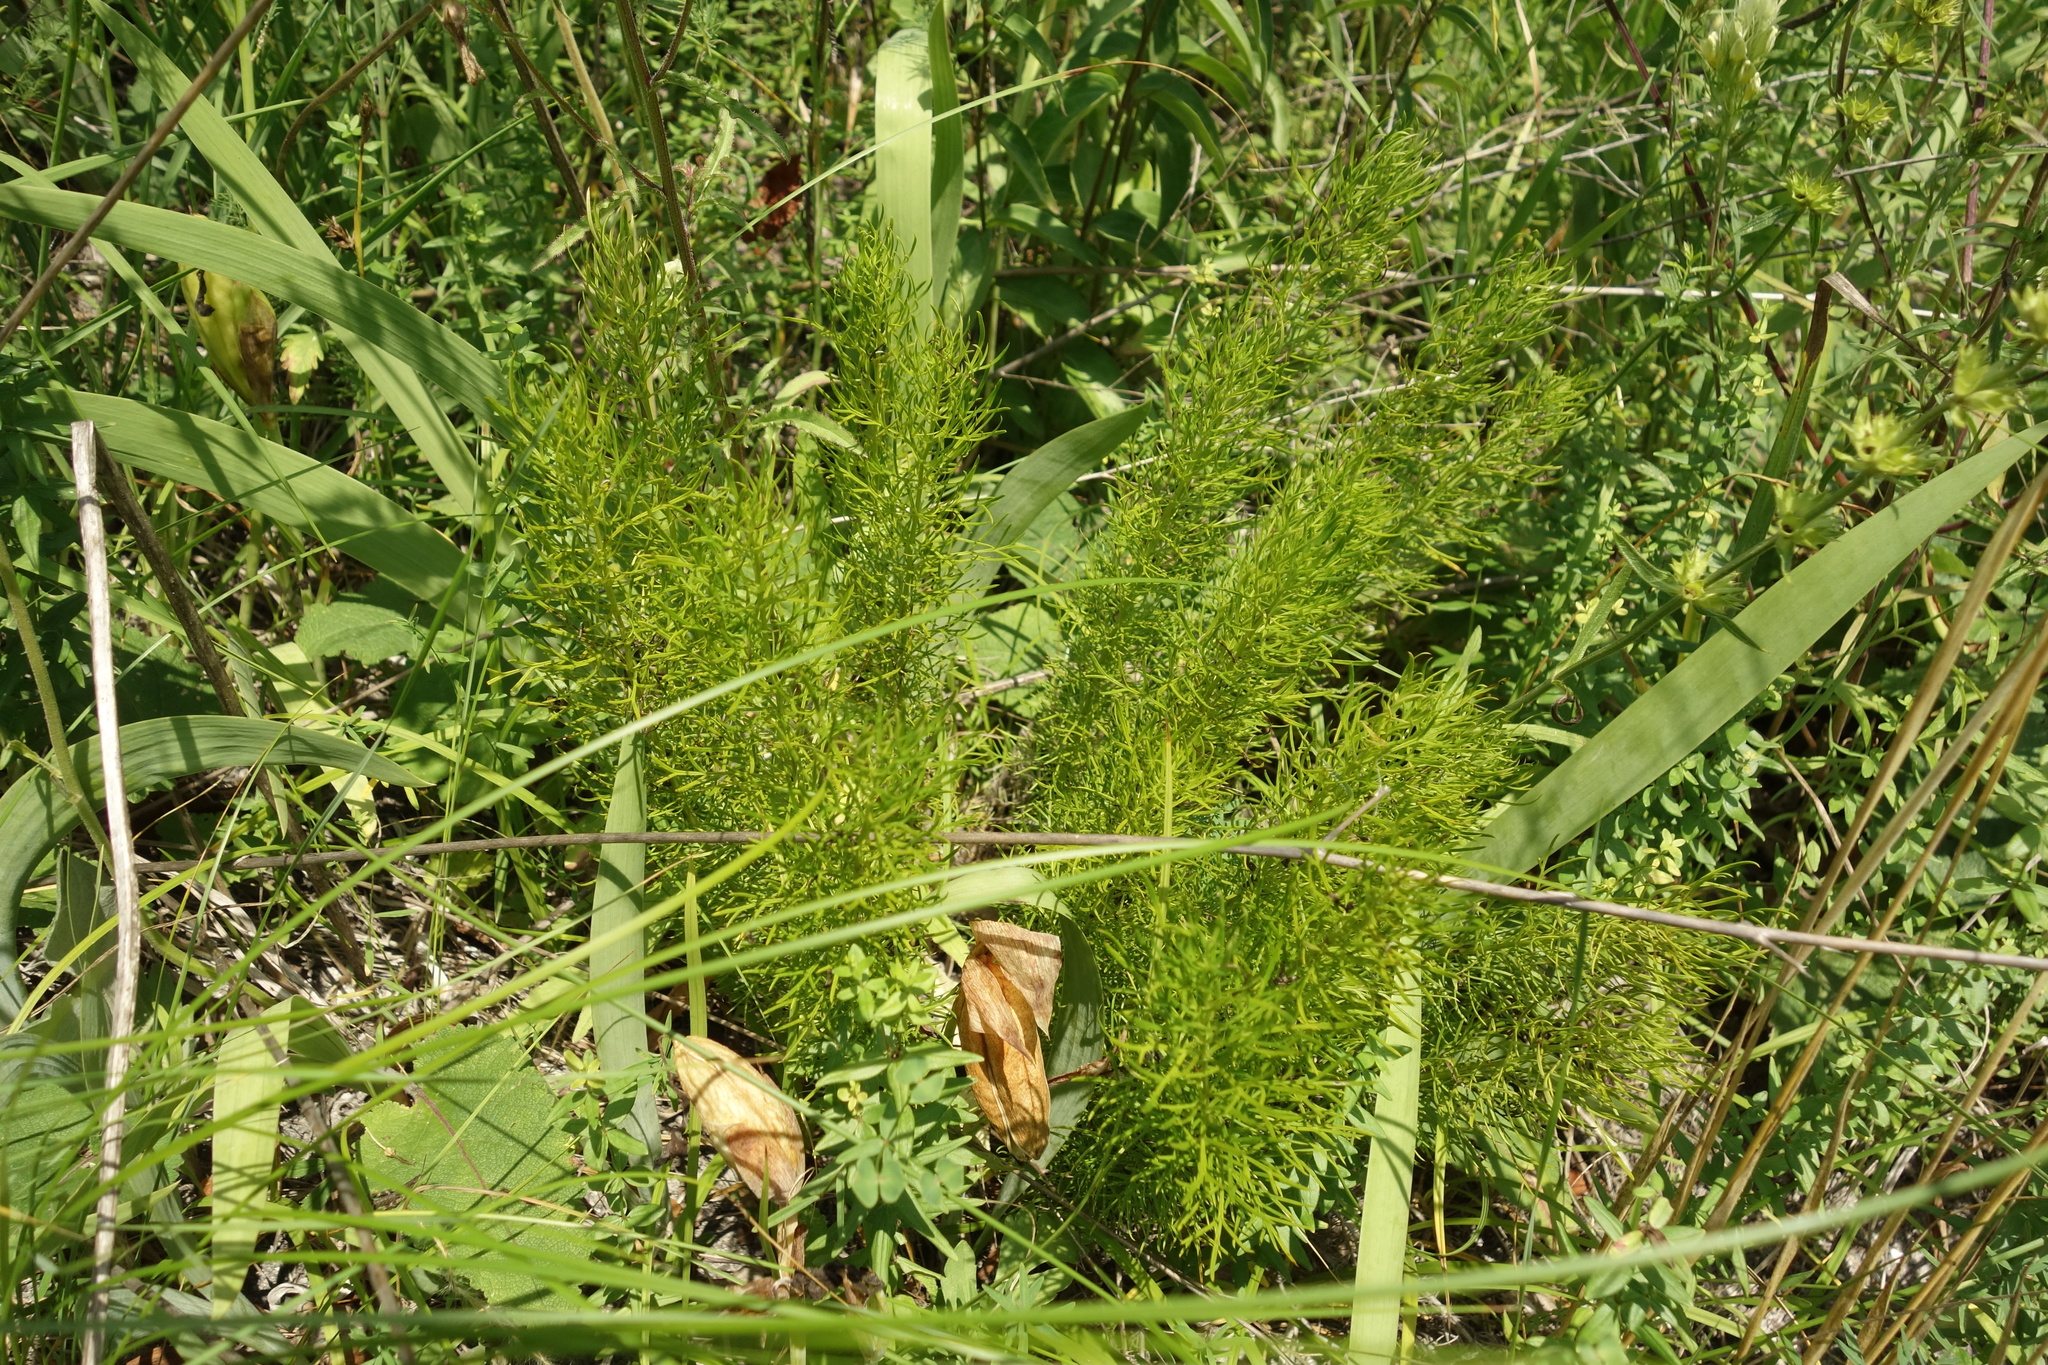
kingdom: Plantae
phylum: Tracheophyta
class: Magnoliopsida
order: Ranunculales
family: Ranunculaceae
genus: Adonis
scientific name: Adonis vernalis
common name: Yellow pheasants-eye
